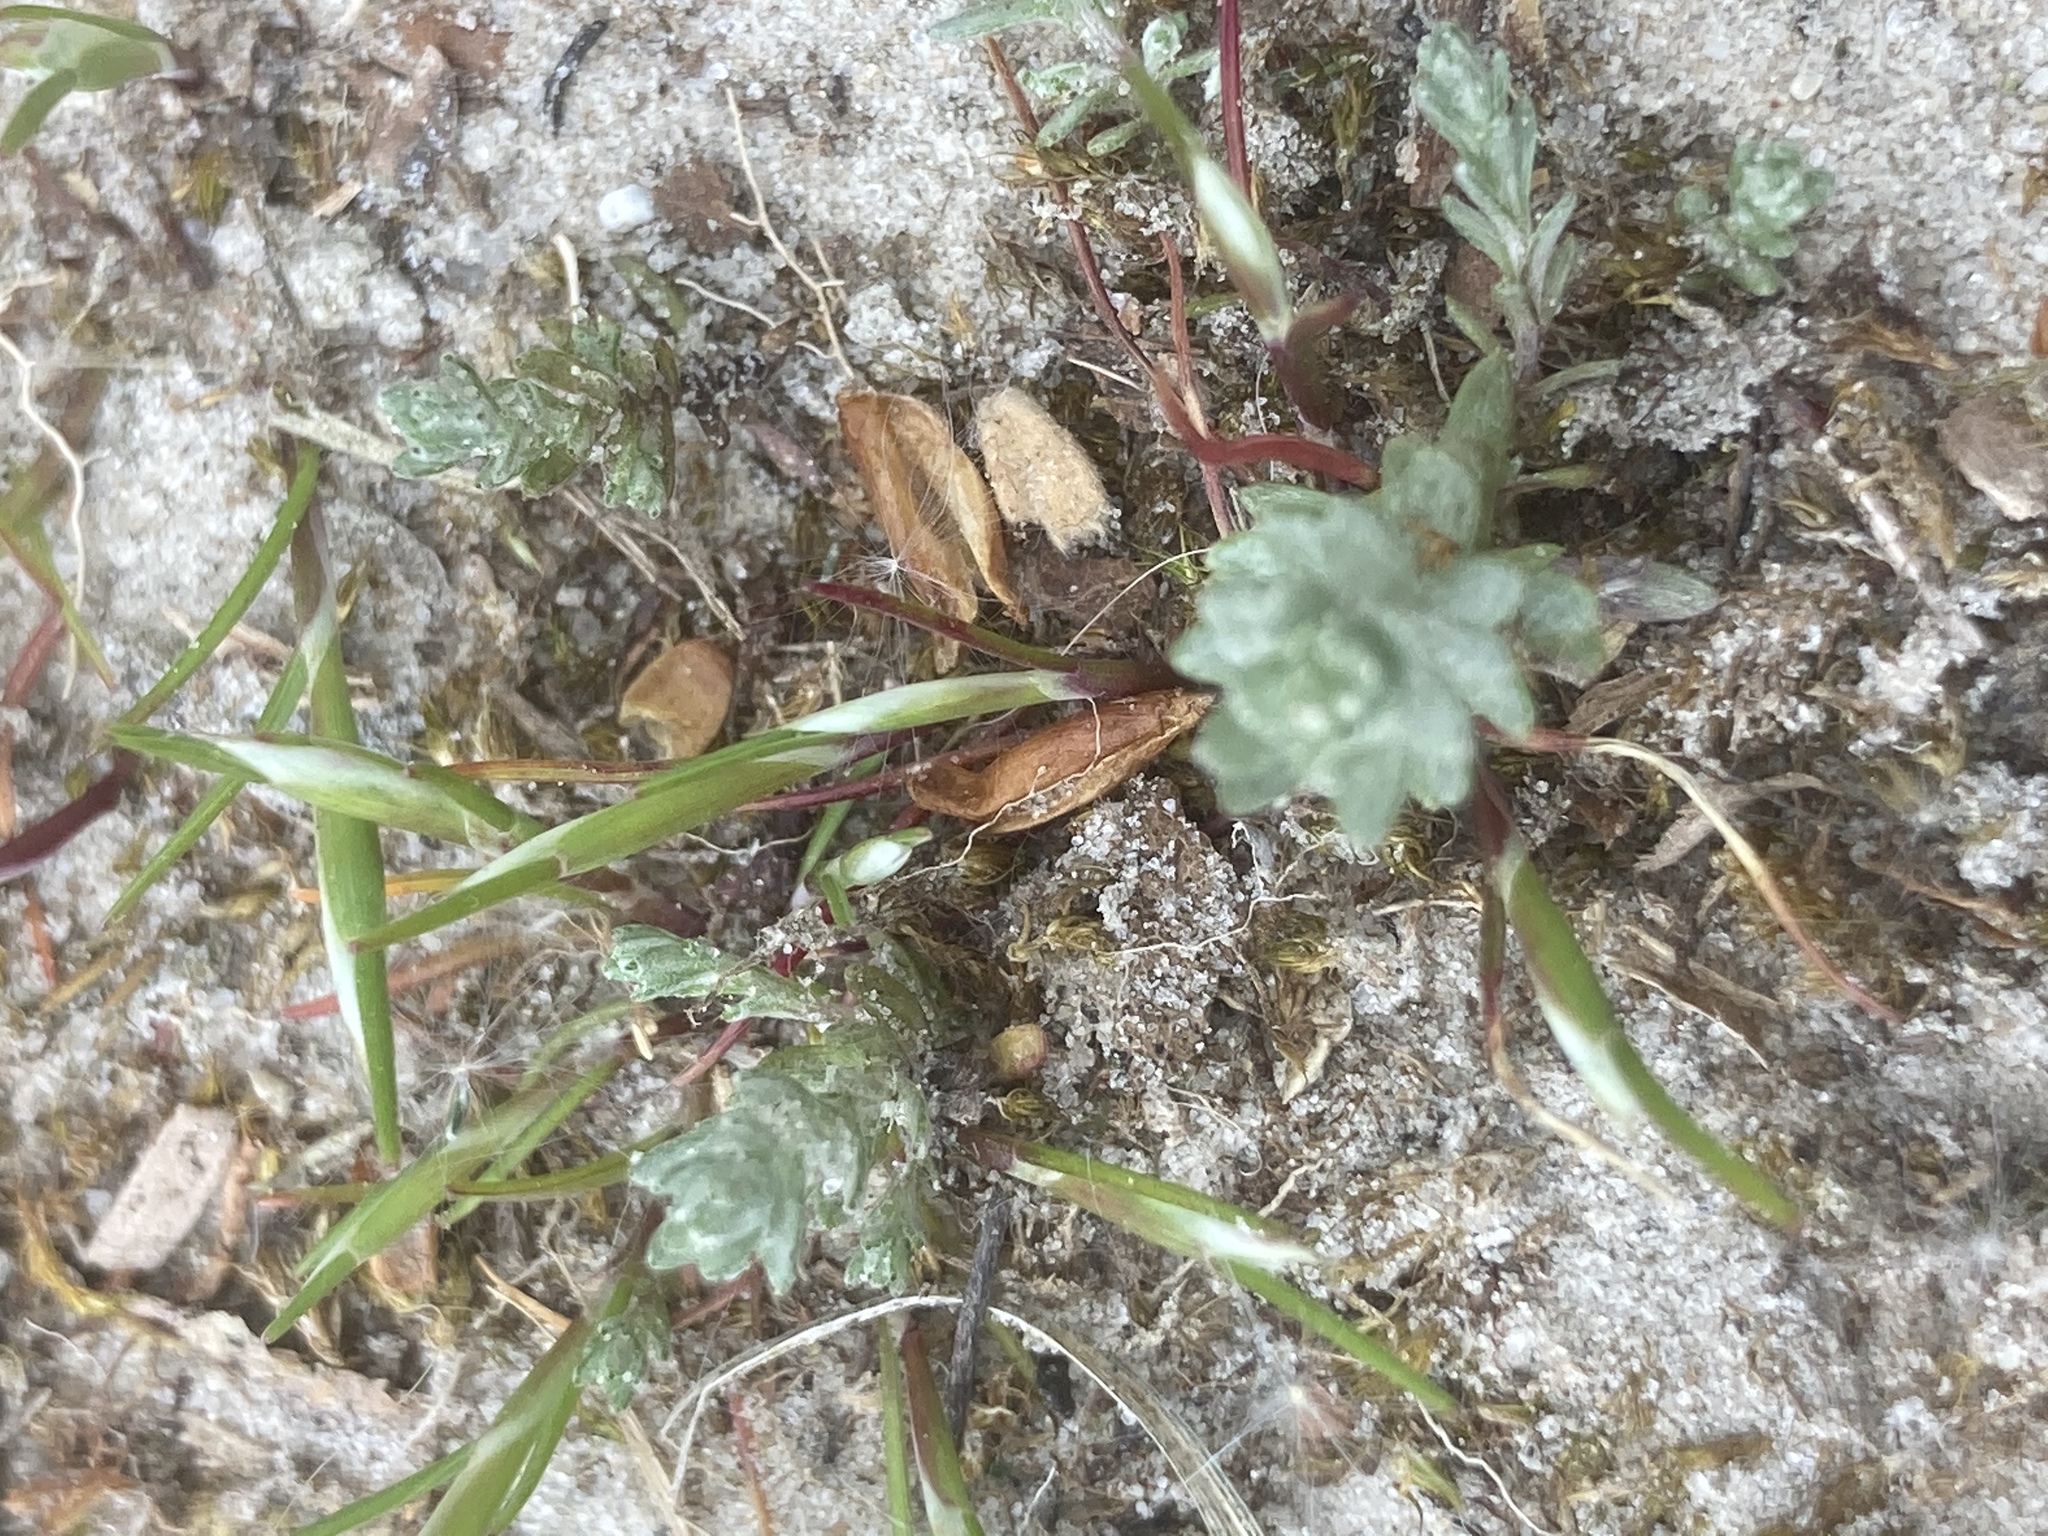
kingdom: Plantae
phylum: Tracheophyta
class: Liliopsida
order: Poales
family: Poaceae
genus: Aira
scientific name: Aira praecox
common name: Early hair-grass
